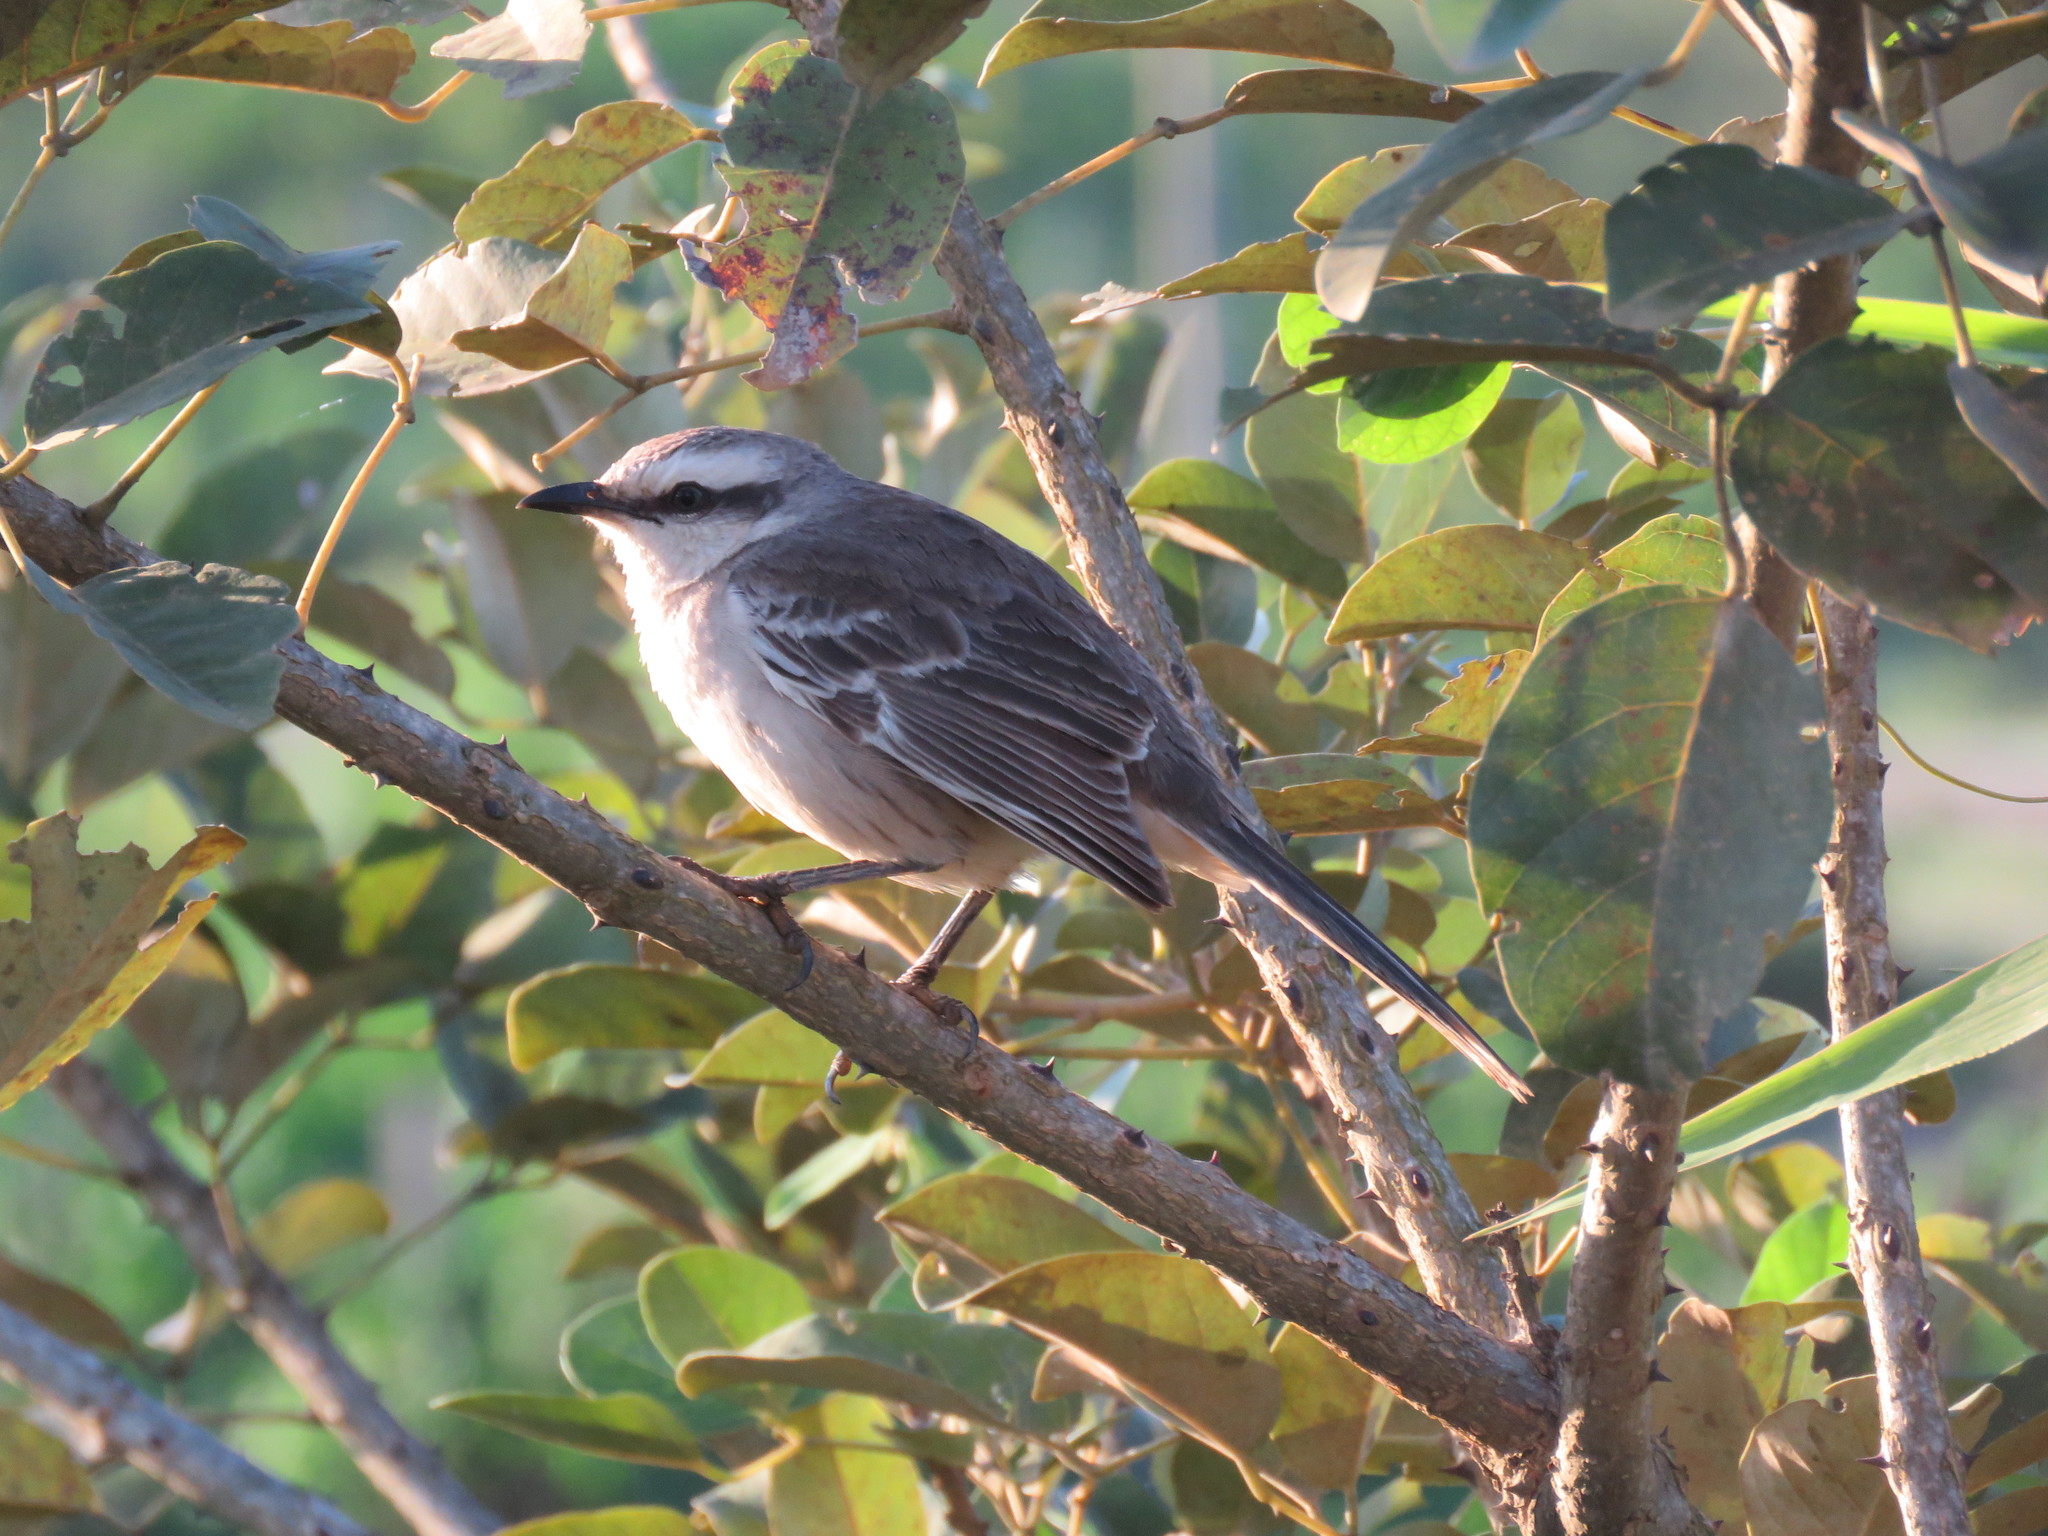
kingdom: Animalia
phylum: Chordata
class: Aves
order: Passeriformes
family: Mimidae
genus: Mimus
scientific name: Mimus saturninus
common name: Chalk-browed mockingbird
